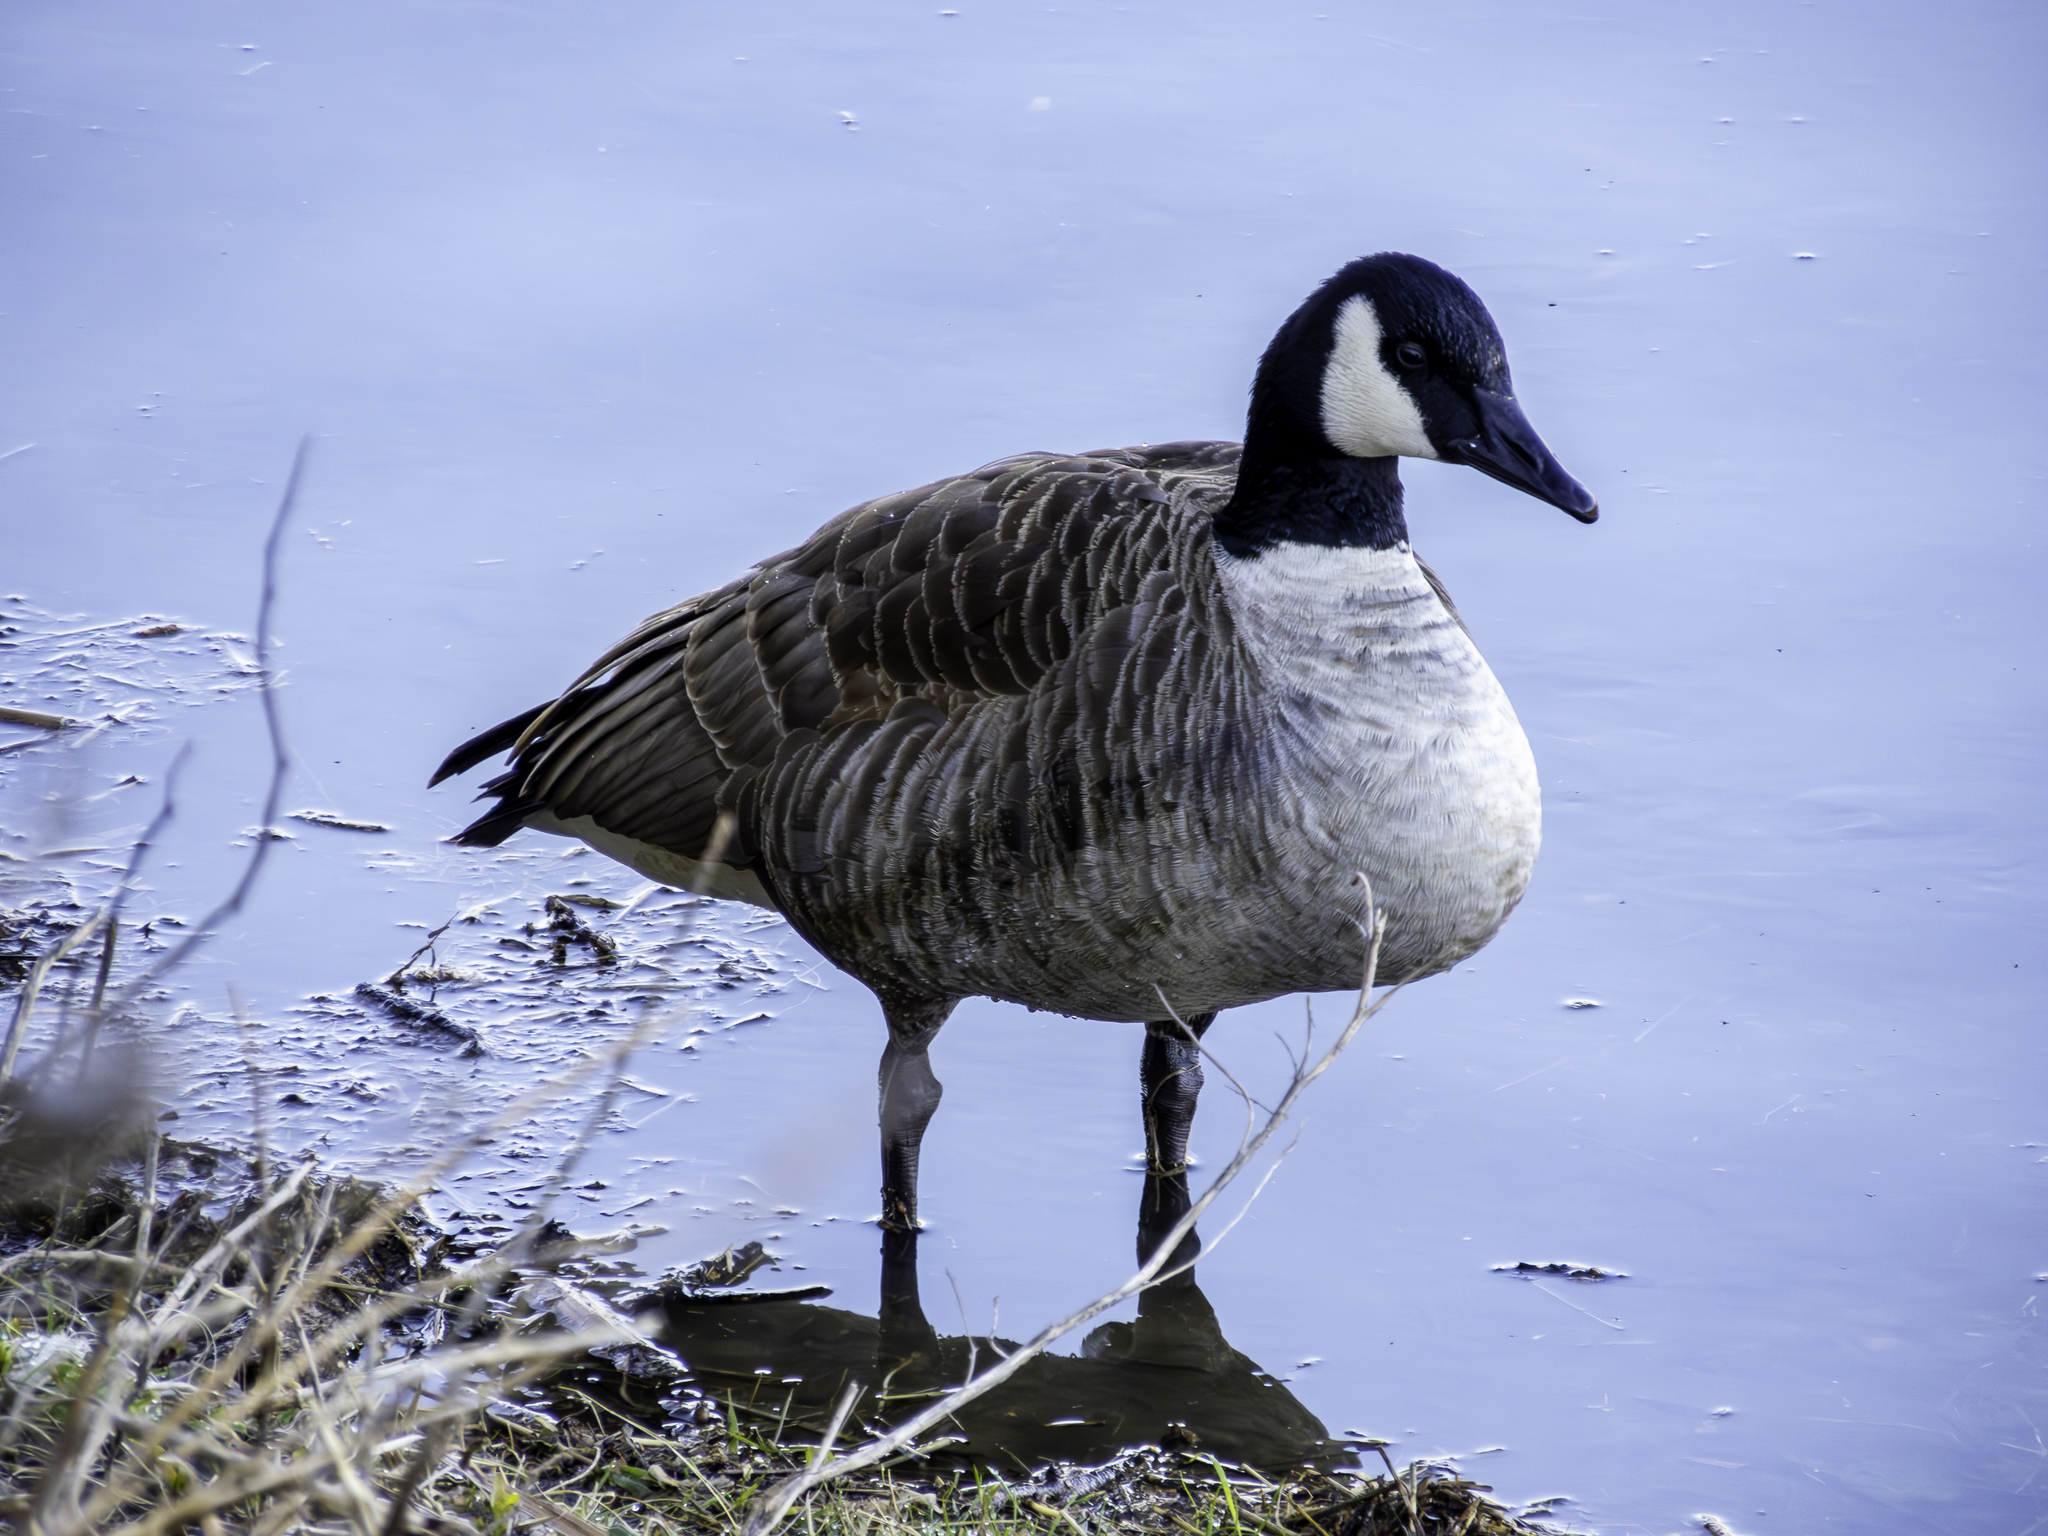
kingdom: Animalia
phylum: Chordata
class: Aves
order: Anseriformes
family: Anatidae
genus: Branta
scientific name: Branta canadensis
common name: Canada goose
